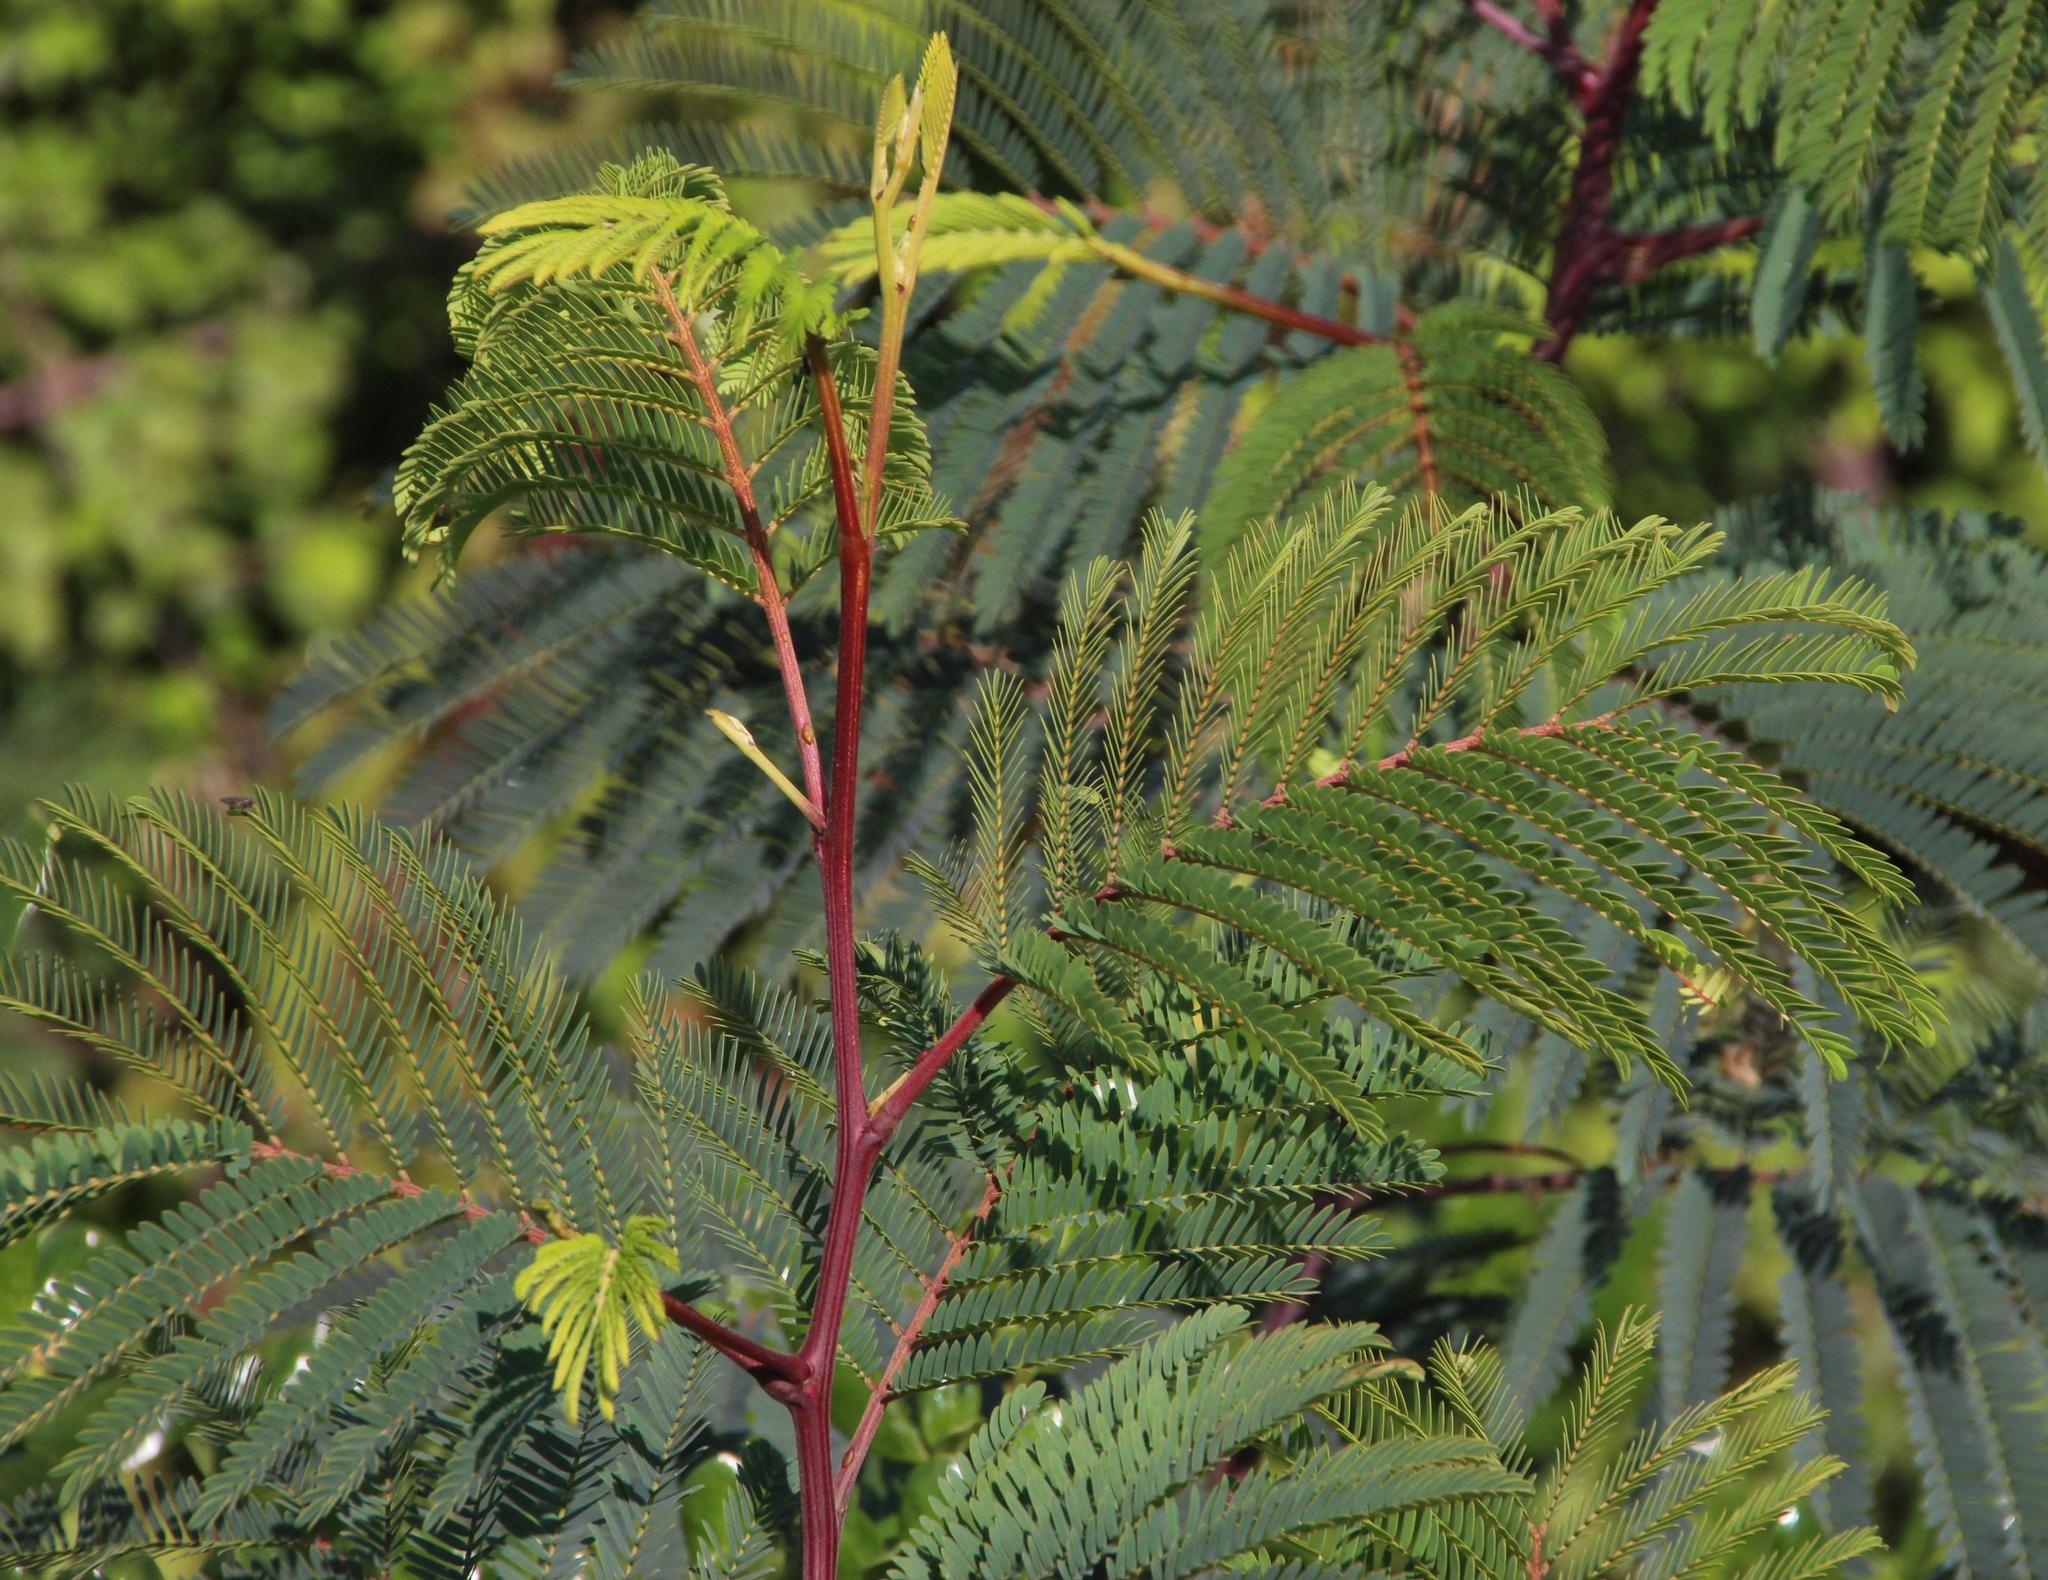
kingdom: Plantae
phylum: Tracheophyta
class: Magnoliopsida
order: Fabales
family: Fabaceae
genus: Paraserianthes
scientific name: Paraserianthes lophantha
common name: Plume albizia
